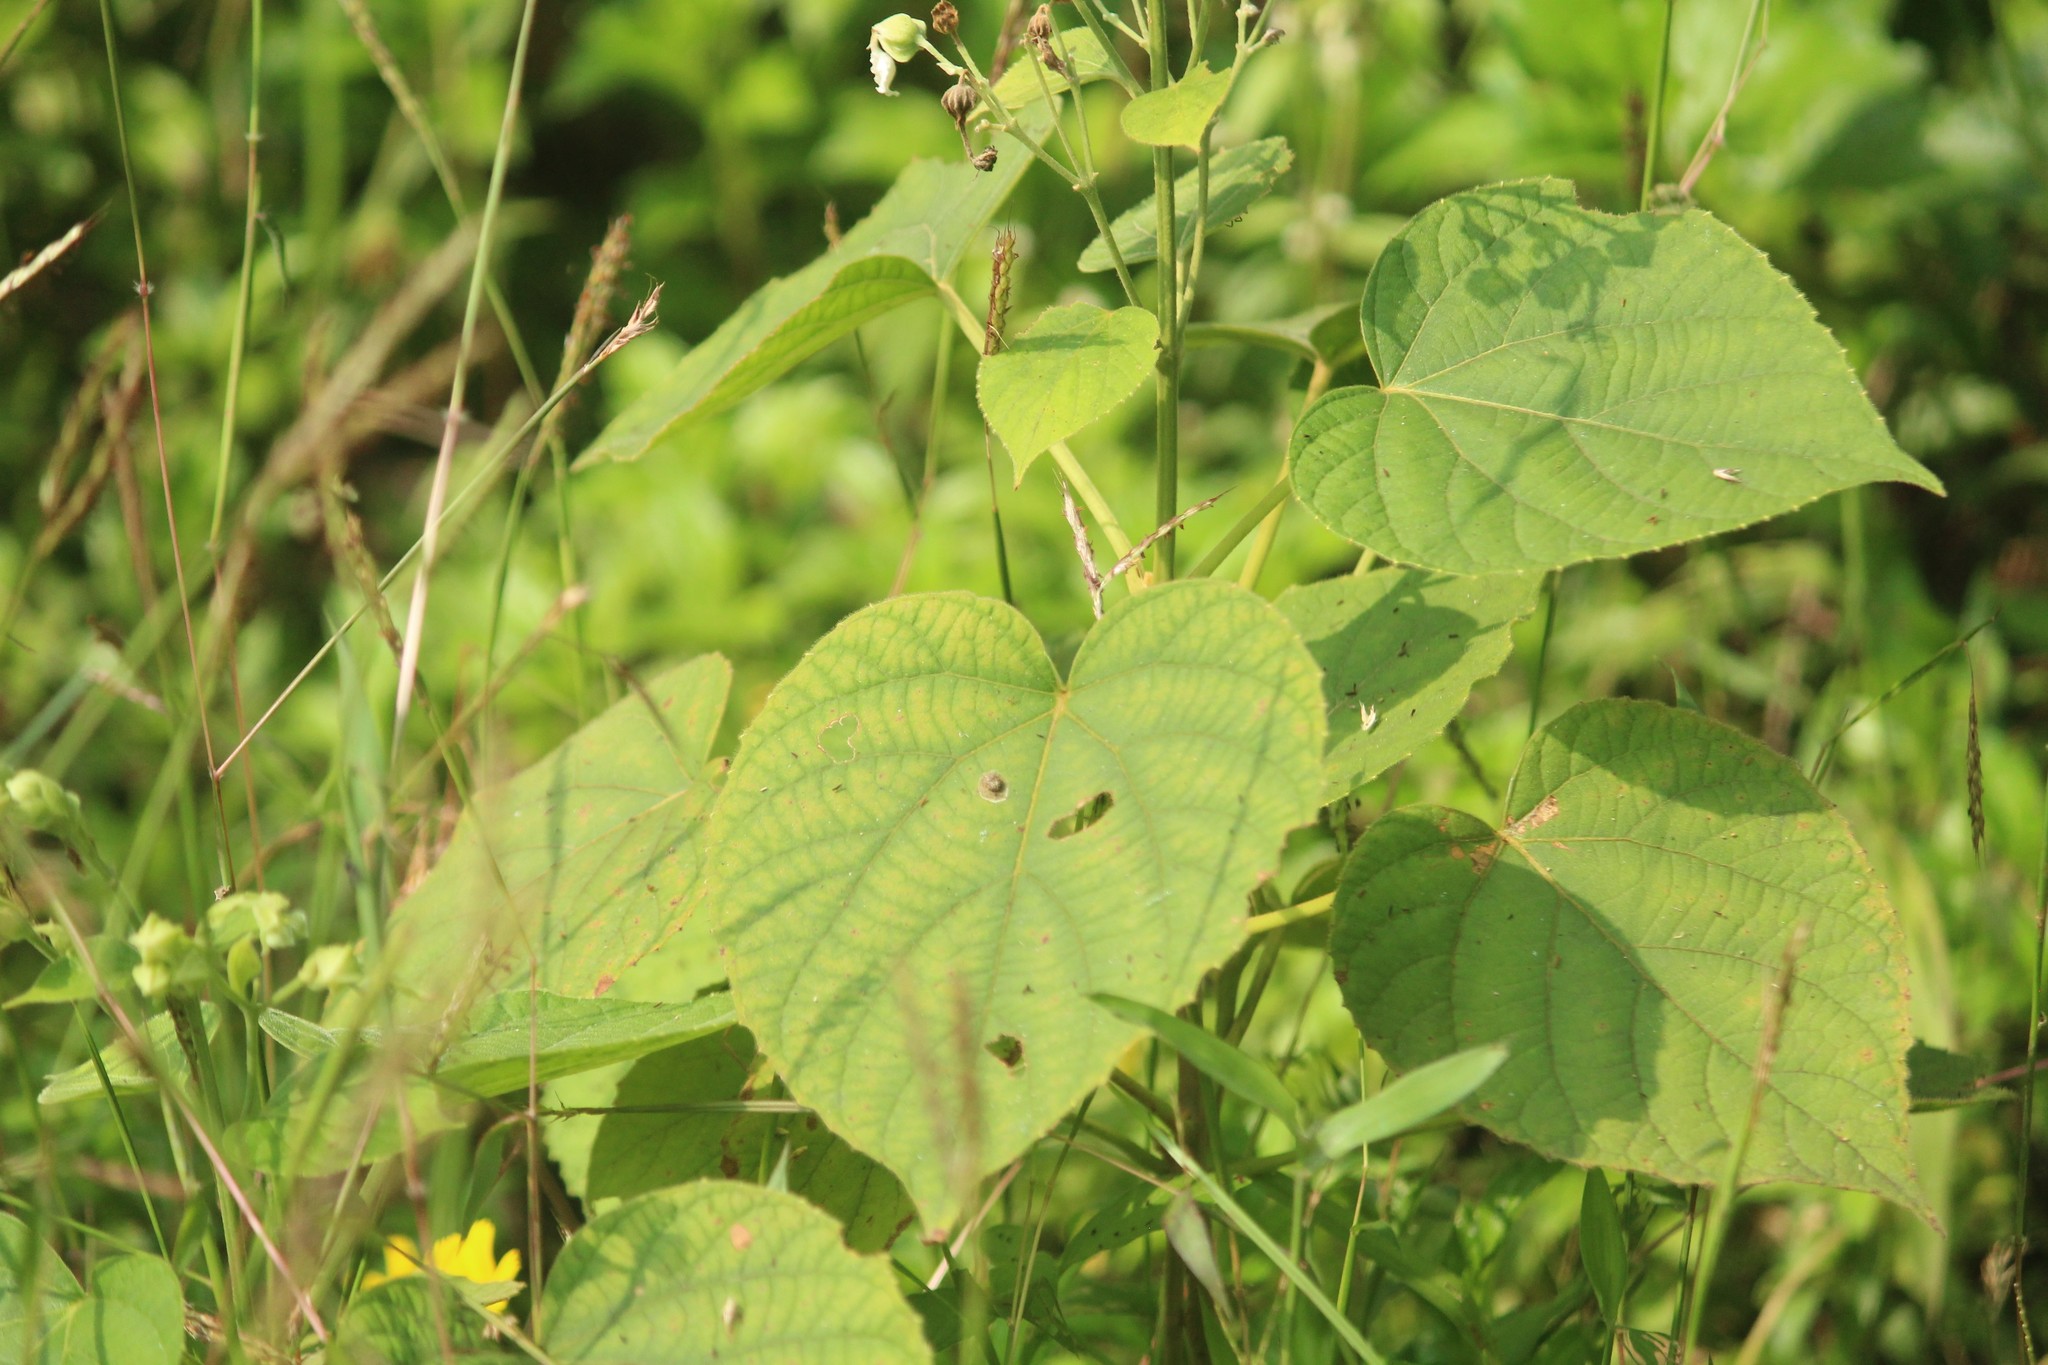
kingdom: Plantae
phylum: Tracheophyta
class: Magnoliopsida
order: Lamiales
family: Lamiaceae
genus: Clerodendrum
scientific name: Clerodendrum infortunatum
